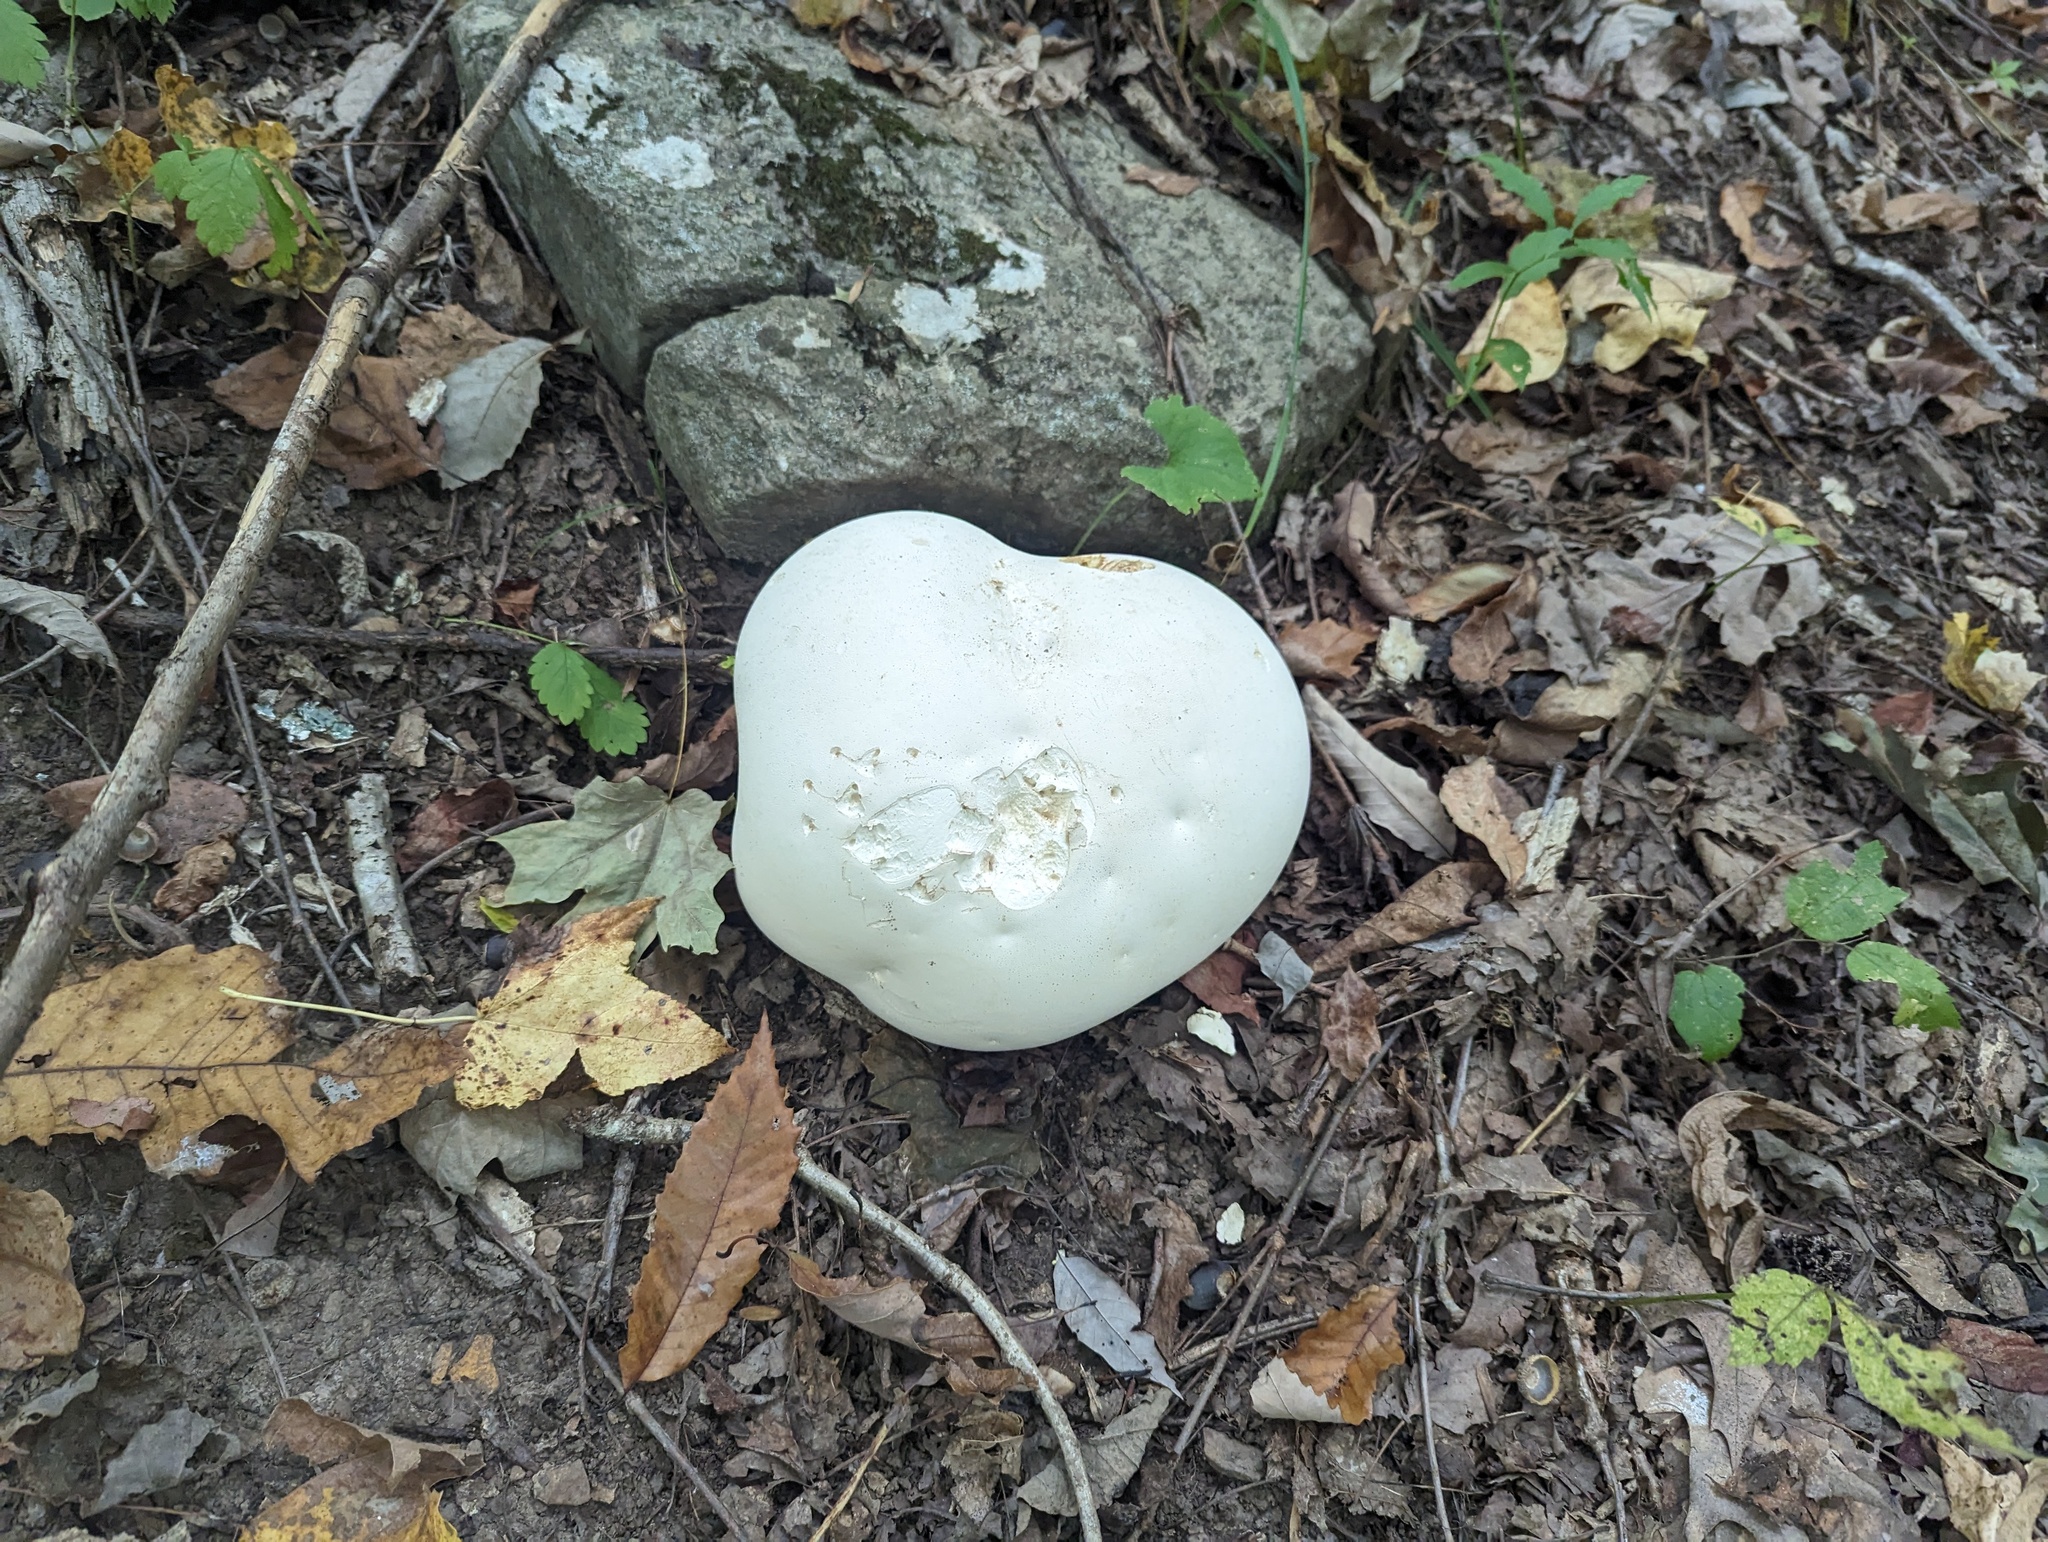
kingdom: Fungi
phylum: Basidiomycota
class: Agaricomycetes
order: Agaricales
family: Lycoperdaceae
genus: Calvatia
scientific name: Calvatia gigantea
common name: Giant puffball
